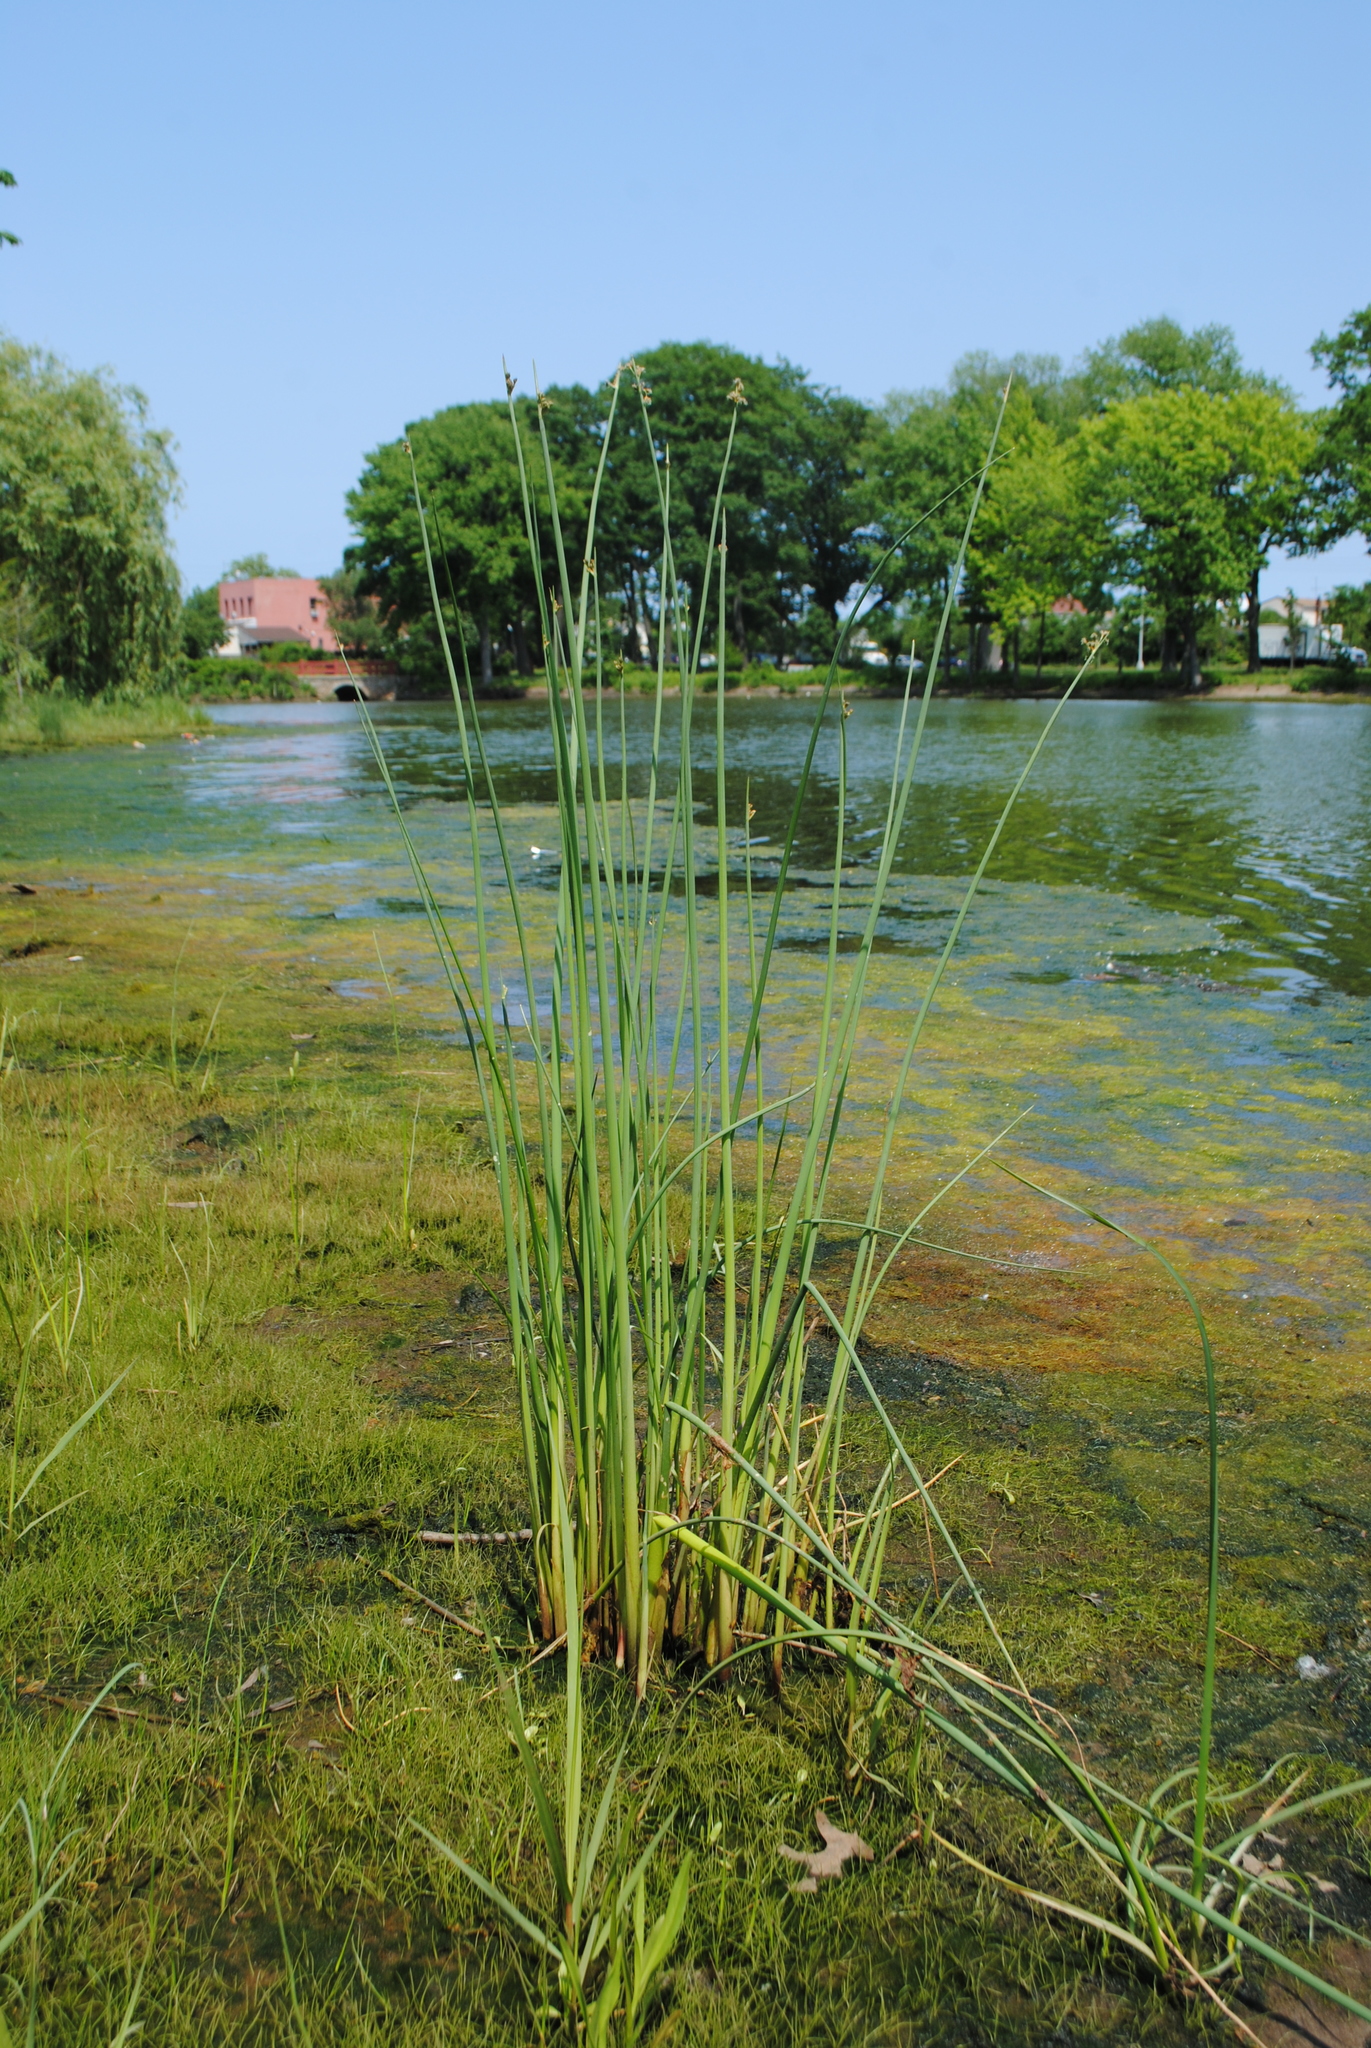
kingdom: Plantae
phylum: Tracheophyta
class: Liliopsida
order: Poales
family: Cyperaceae
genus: Schoenoplectus
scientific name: Schoenoplectus tabernaemontani
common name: Grey club-rush
